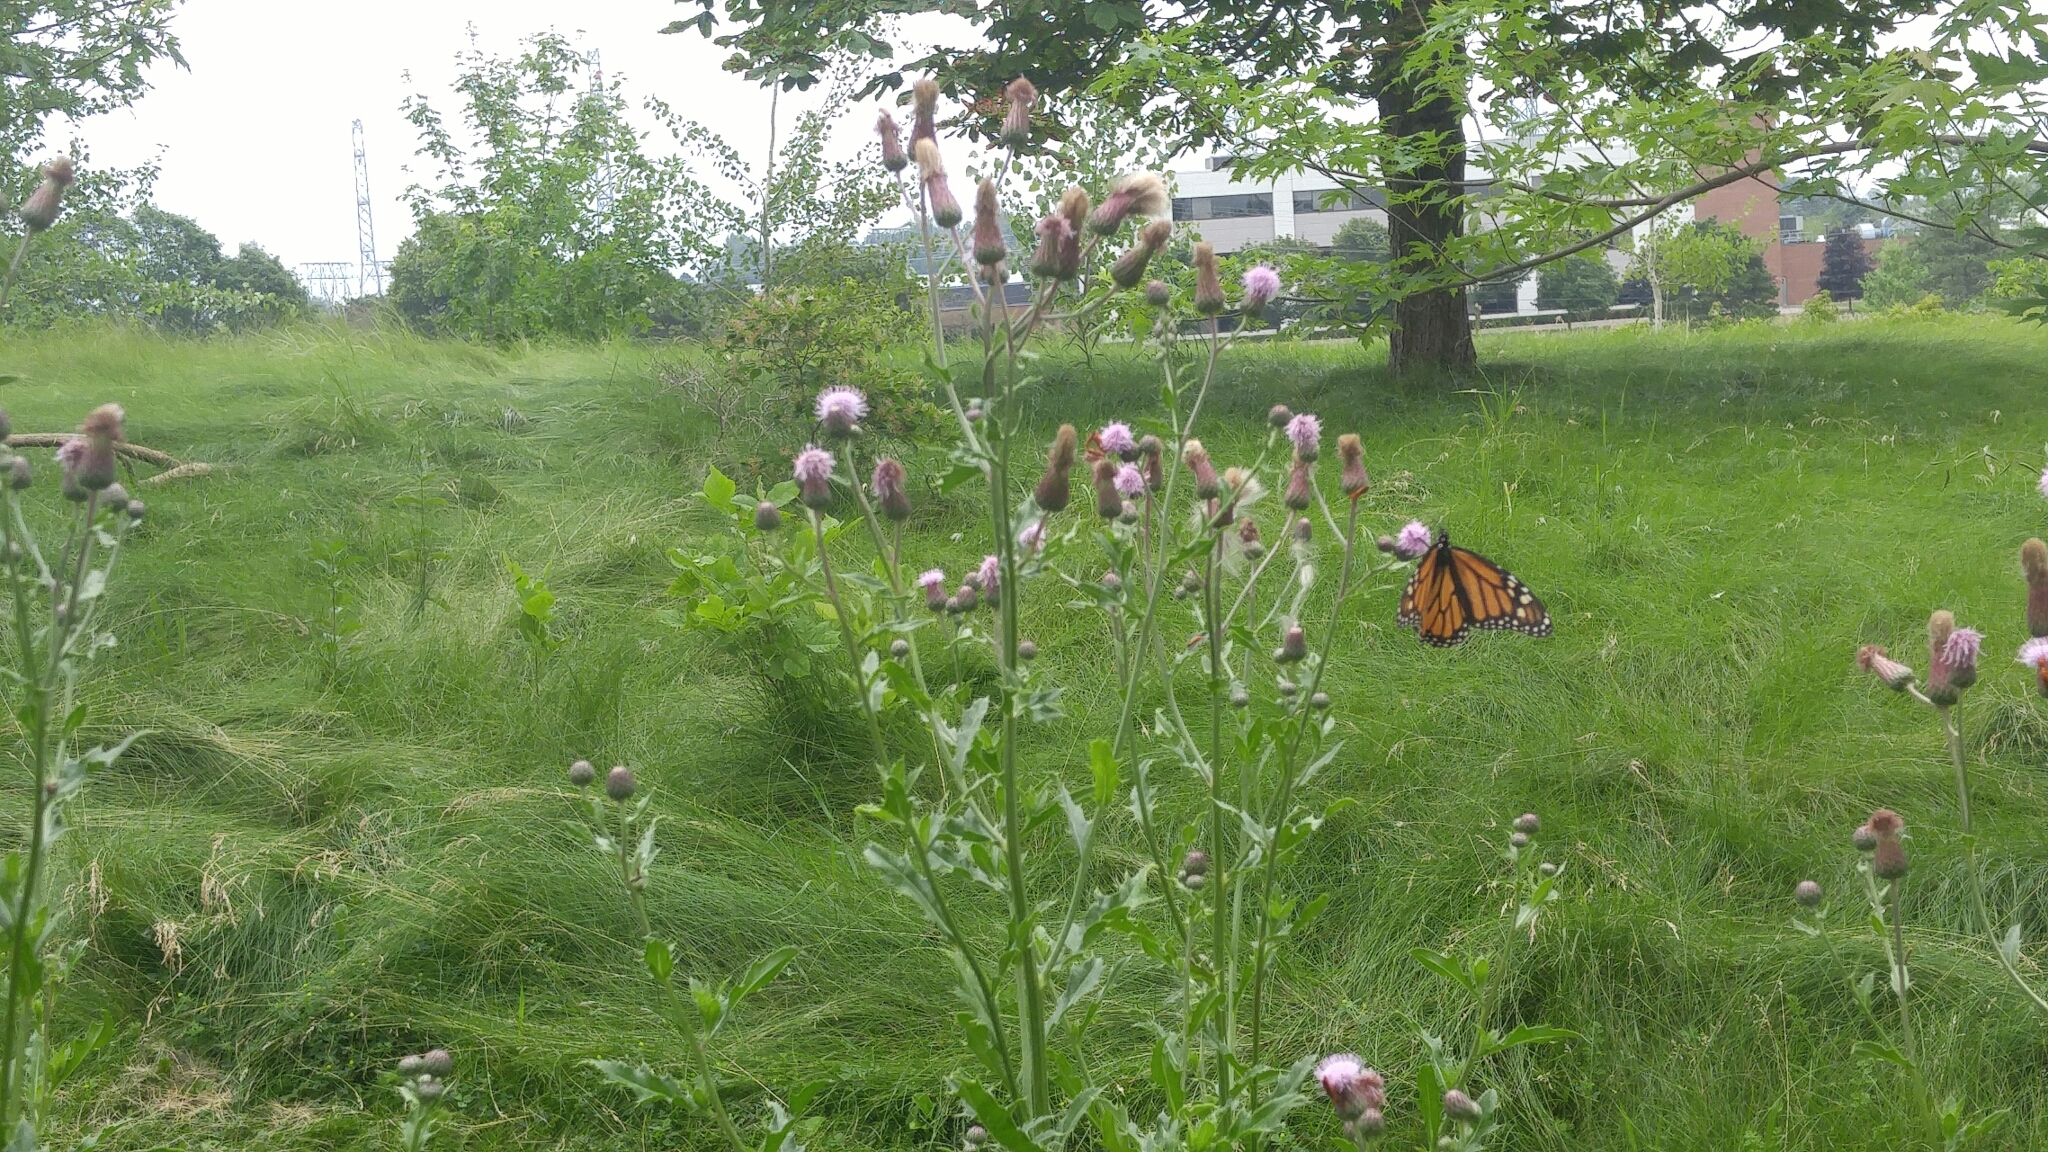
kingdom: Animalia
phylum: Arthropoda
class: Insecta
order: Lepidoptera
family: Nymphalidae
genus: Danaus
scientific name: Danaus plexippus
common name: Monarch
